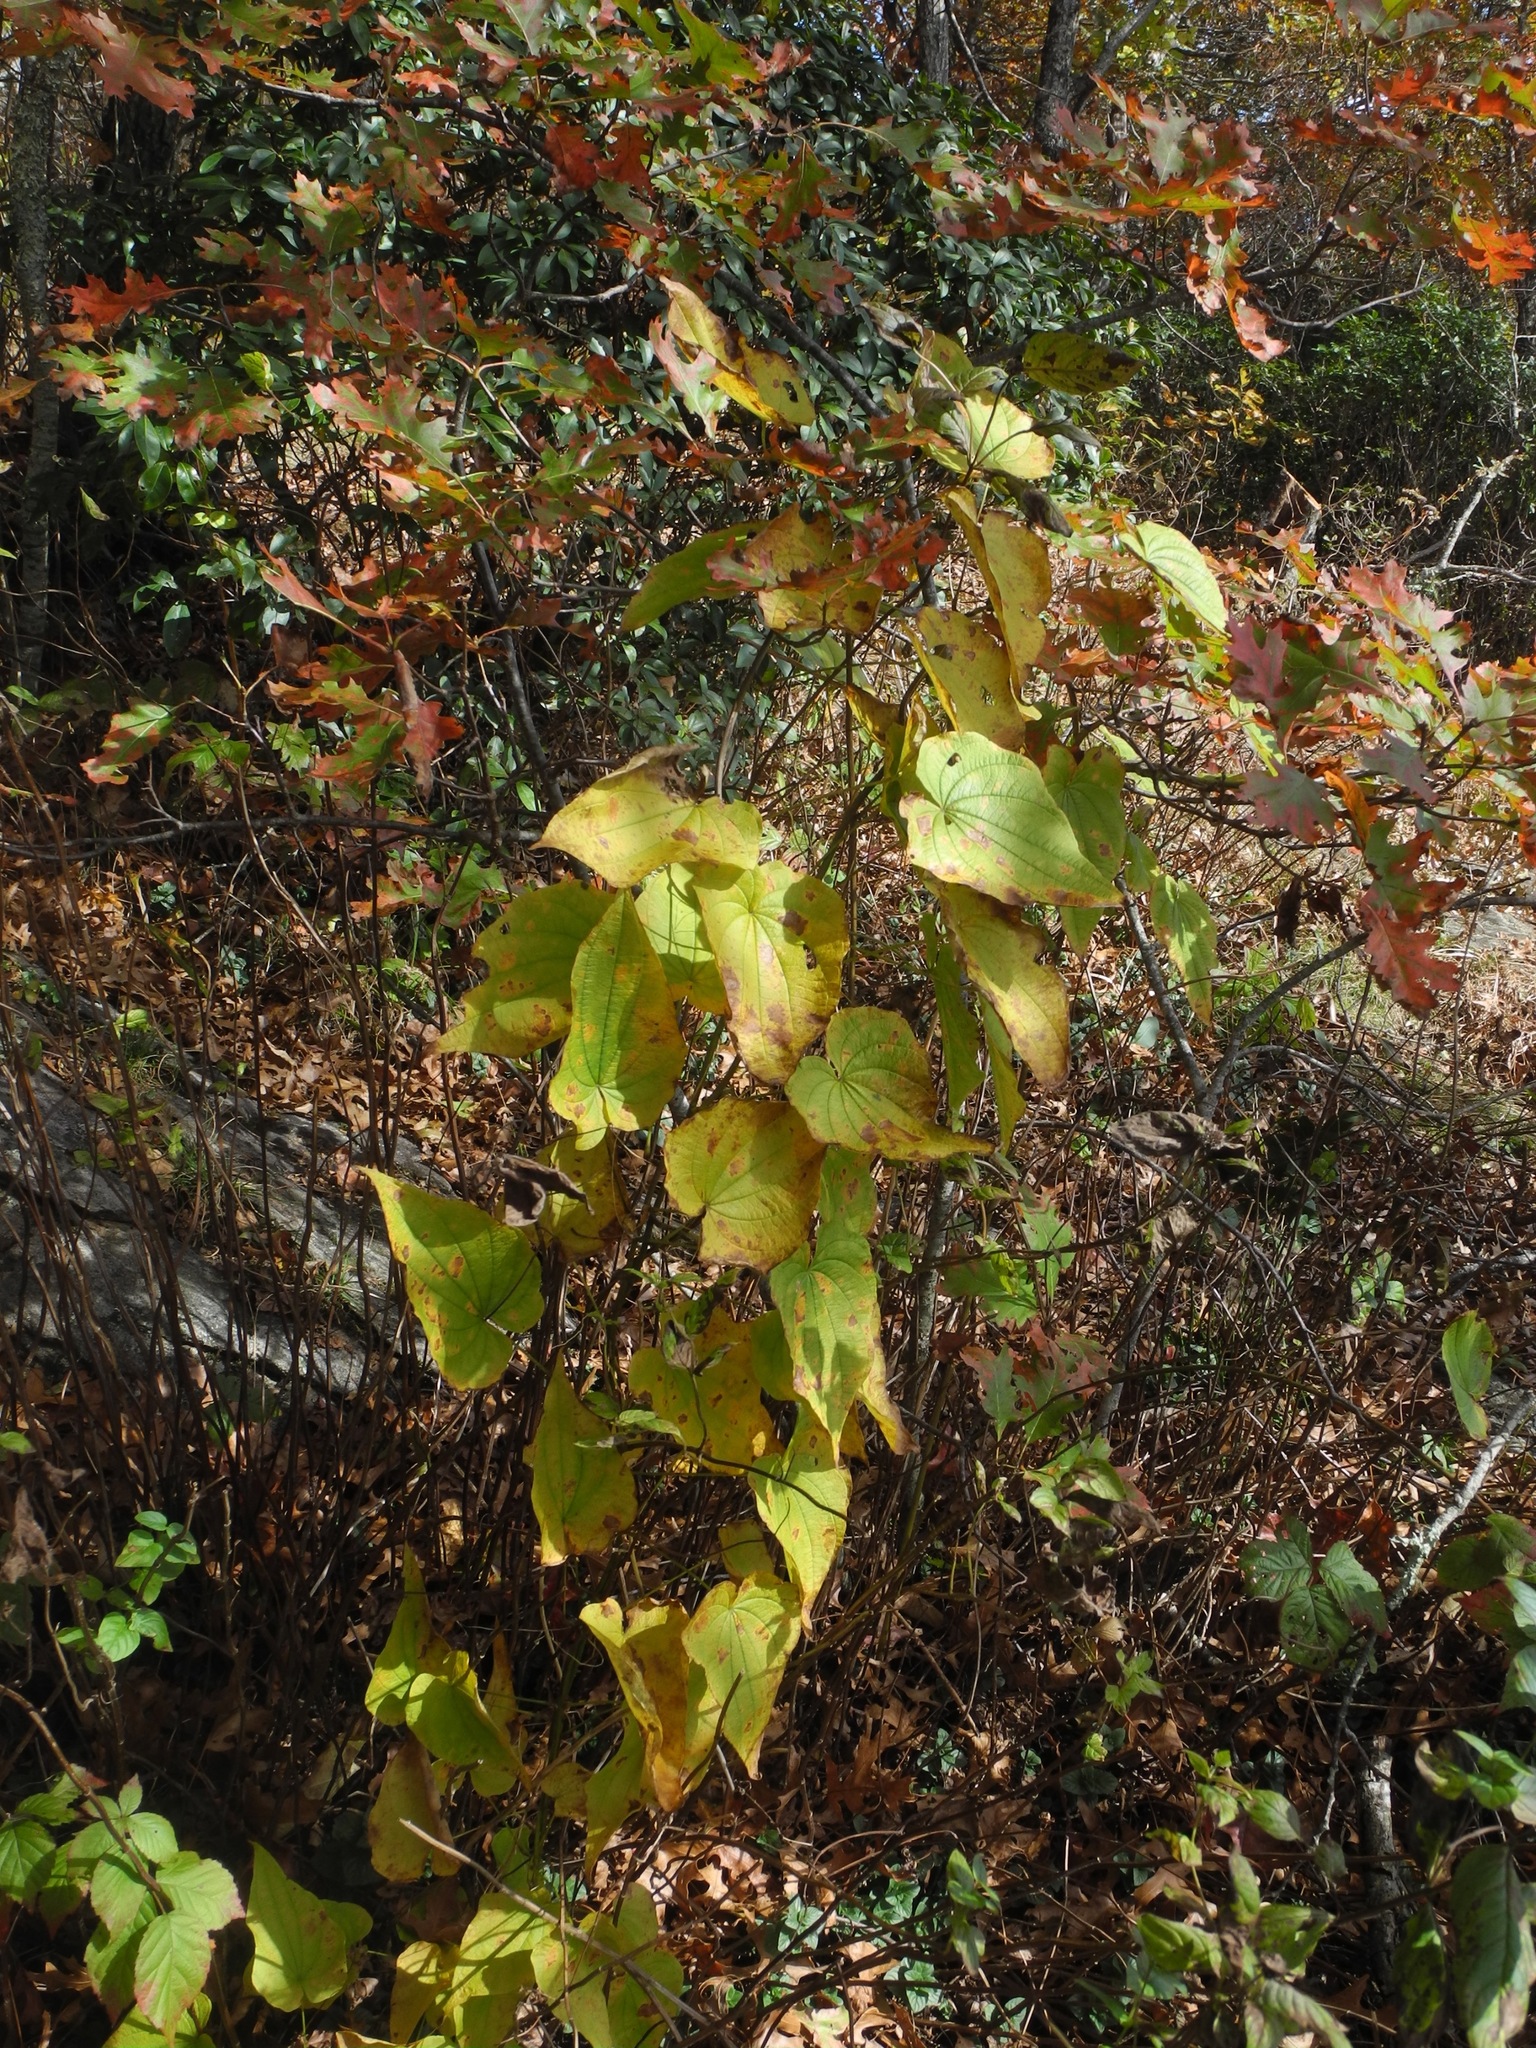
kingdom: Plantae
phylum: Tracheophyta
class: Liliopsida
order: Dioscoreales
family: Dioscoreaceae
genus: Dioscorea
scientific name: Dioscorea villosa
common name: Wild yam
